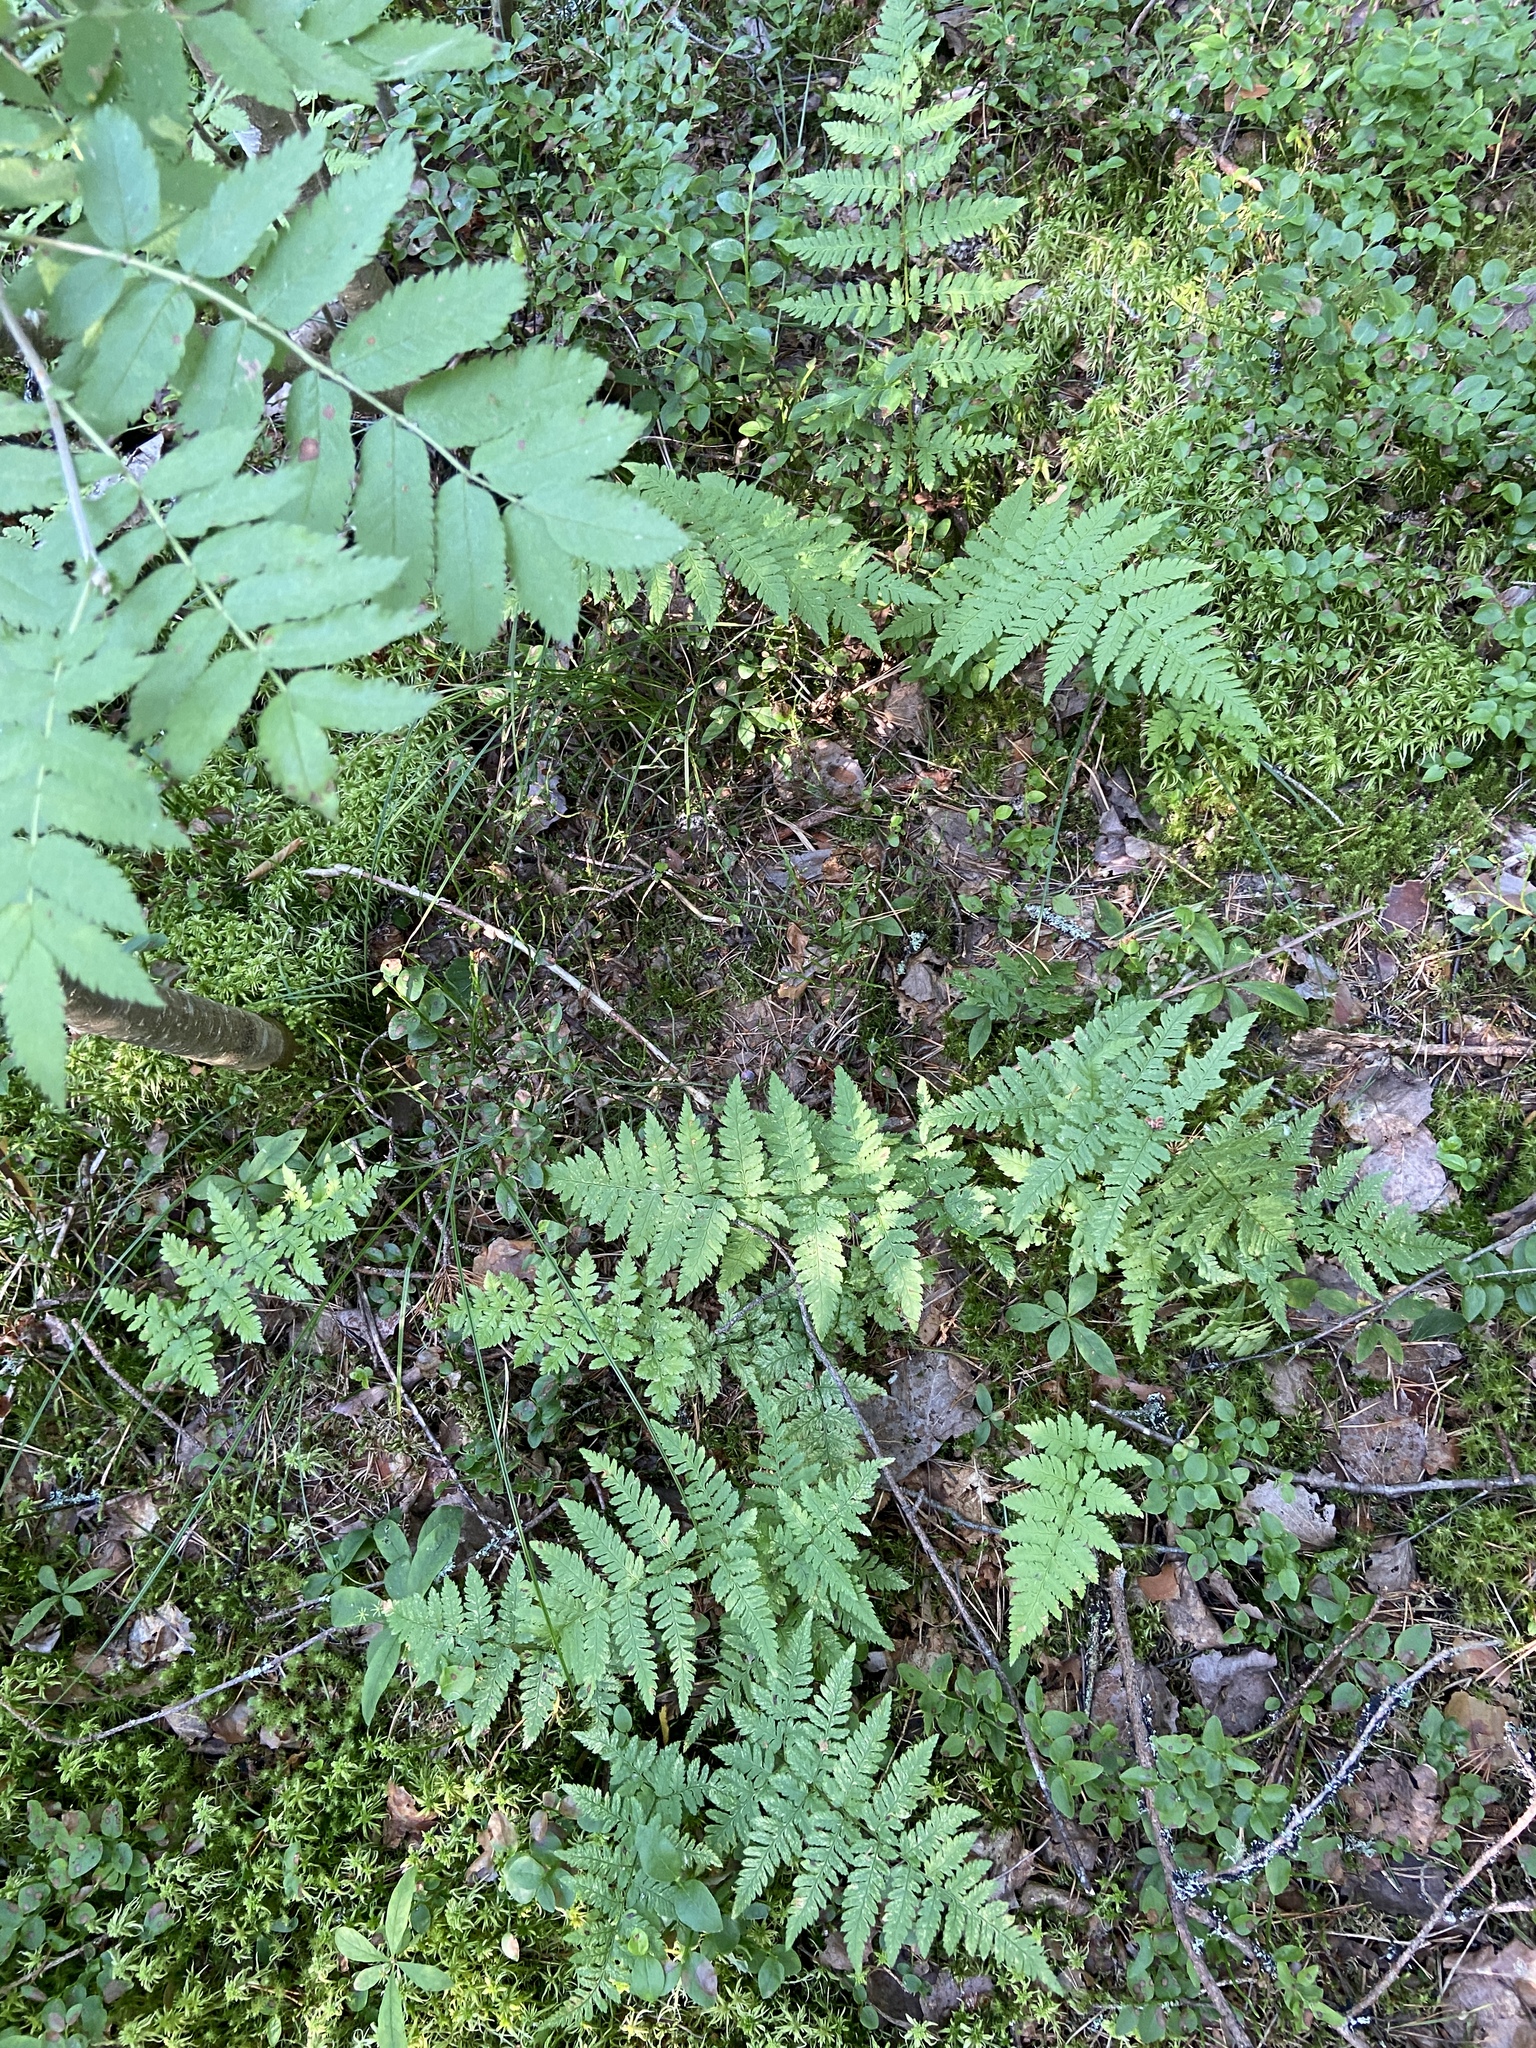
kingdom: Plantae
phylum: Tracheophyta
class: Polypodiopsida
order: Polypodiales
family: Dryopteridaceae
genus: Dryopteris
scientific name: Dryopteris carthusiana
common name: Narrow buckler-fern
